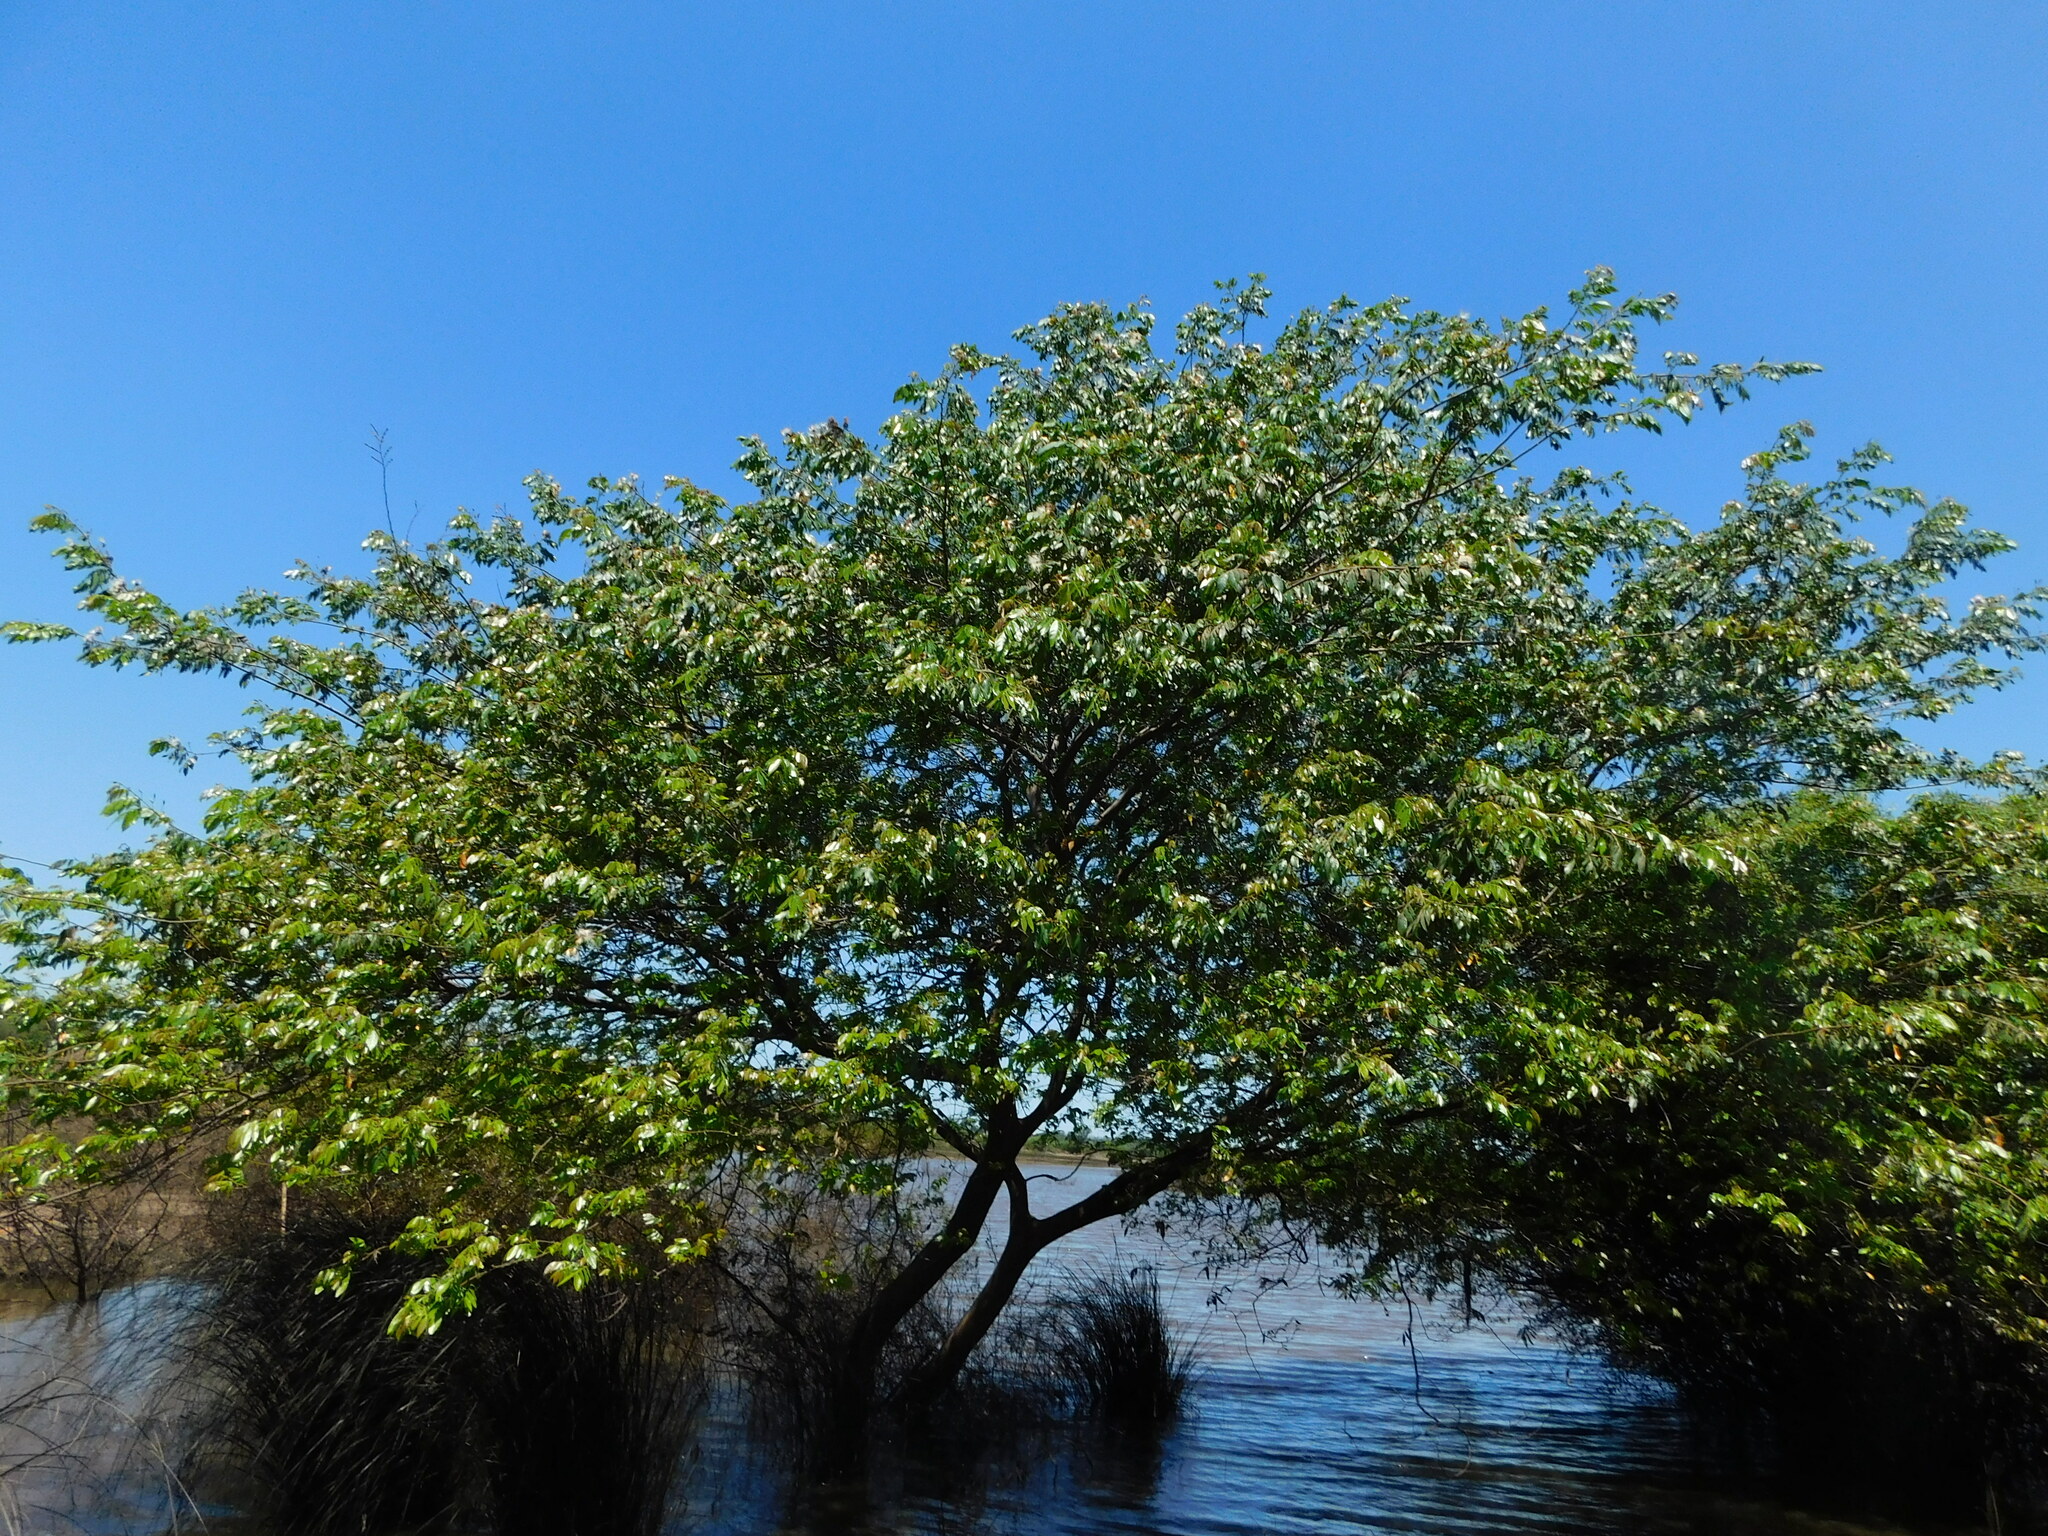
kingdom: Plantae
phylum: Tracheophyta
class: Magnoliopsida
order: Fabales
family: Fabaceae
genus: Inga
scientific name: Inga uraguensis
